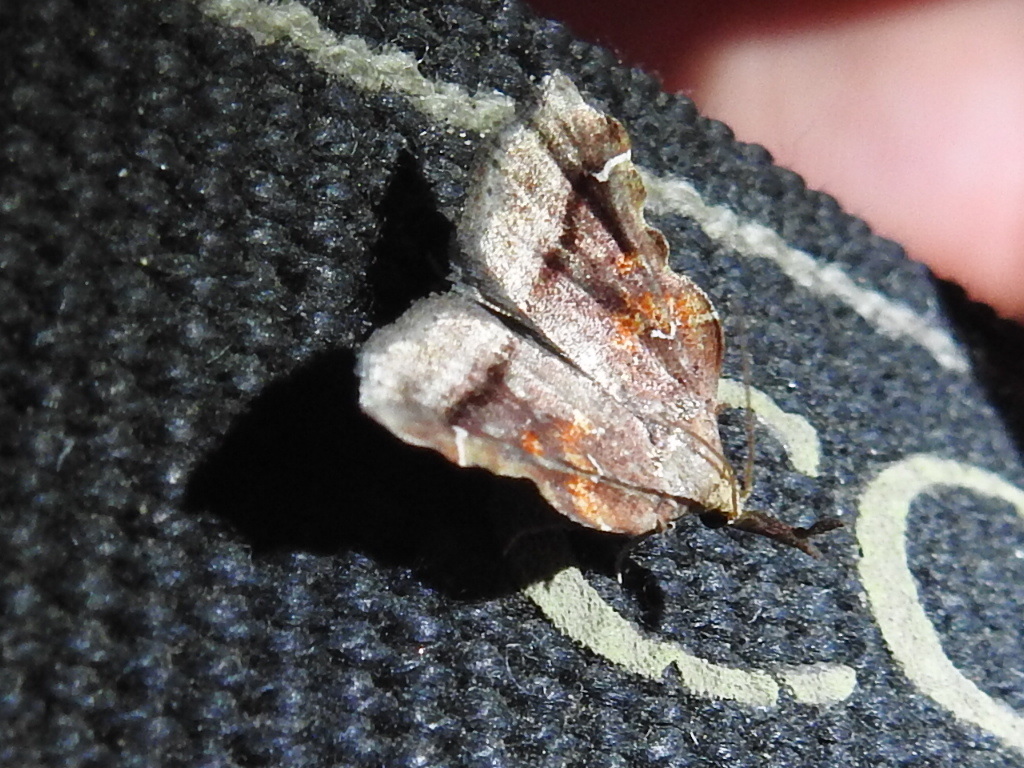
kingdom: Animalia
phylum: Arthropoda
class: Insecta
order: Lepidoptera
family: Pyralidae
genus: Clydonopteron
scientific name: Clydonopteron sacculana
